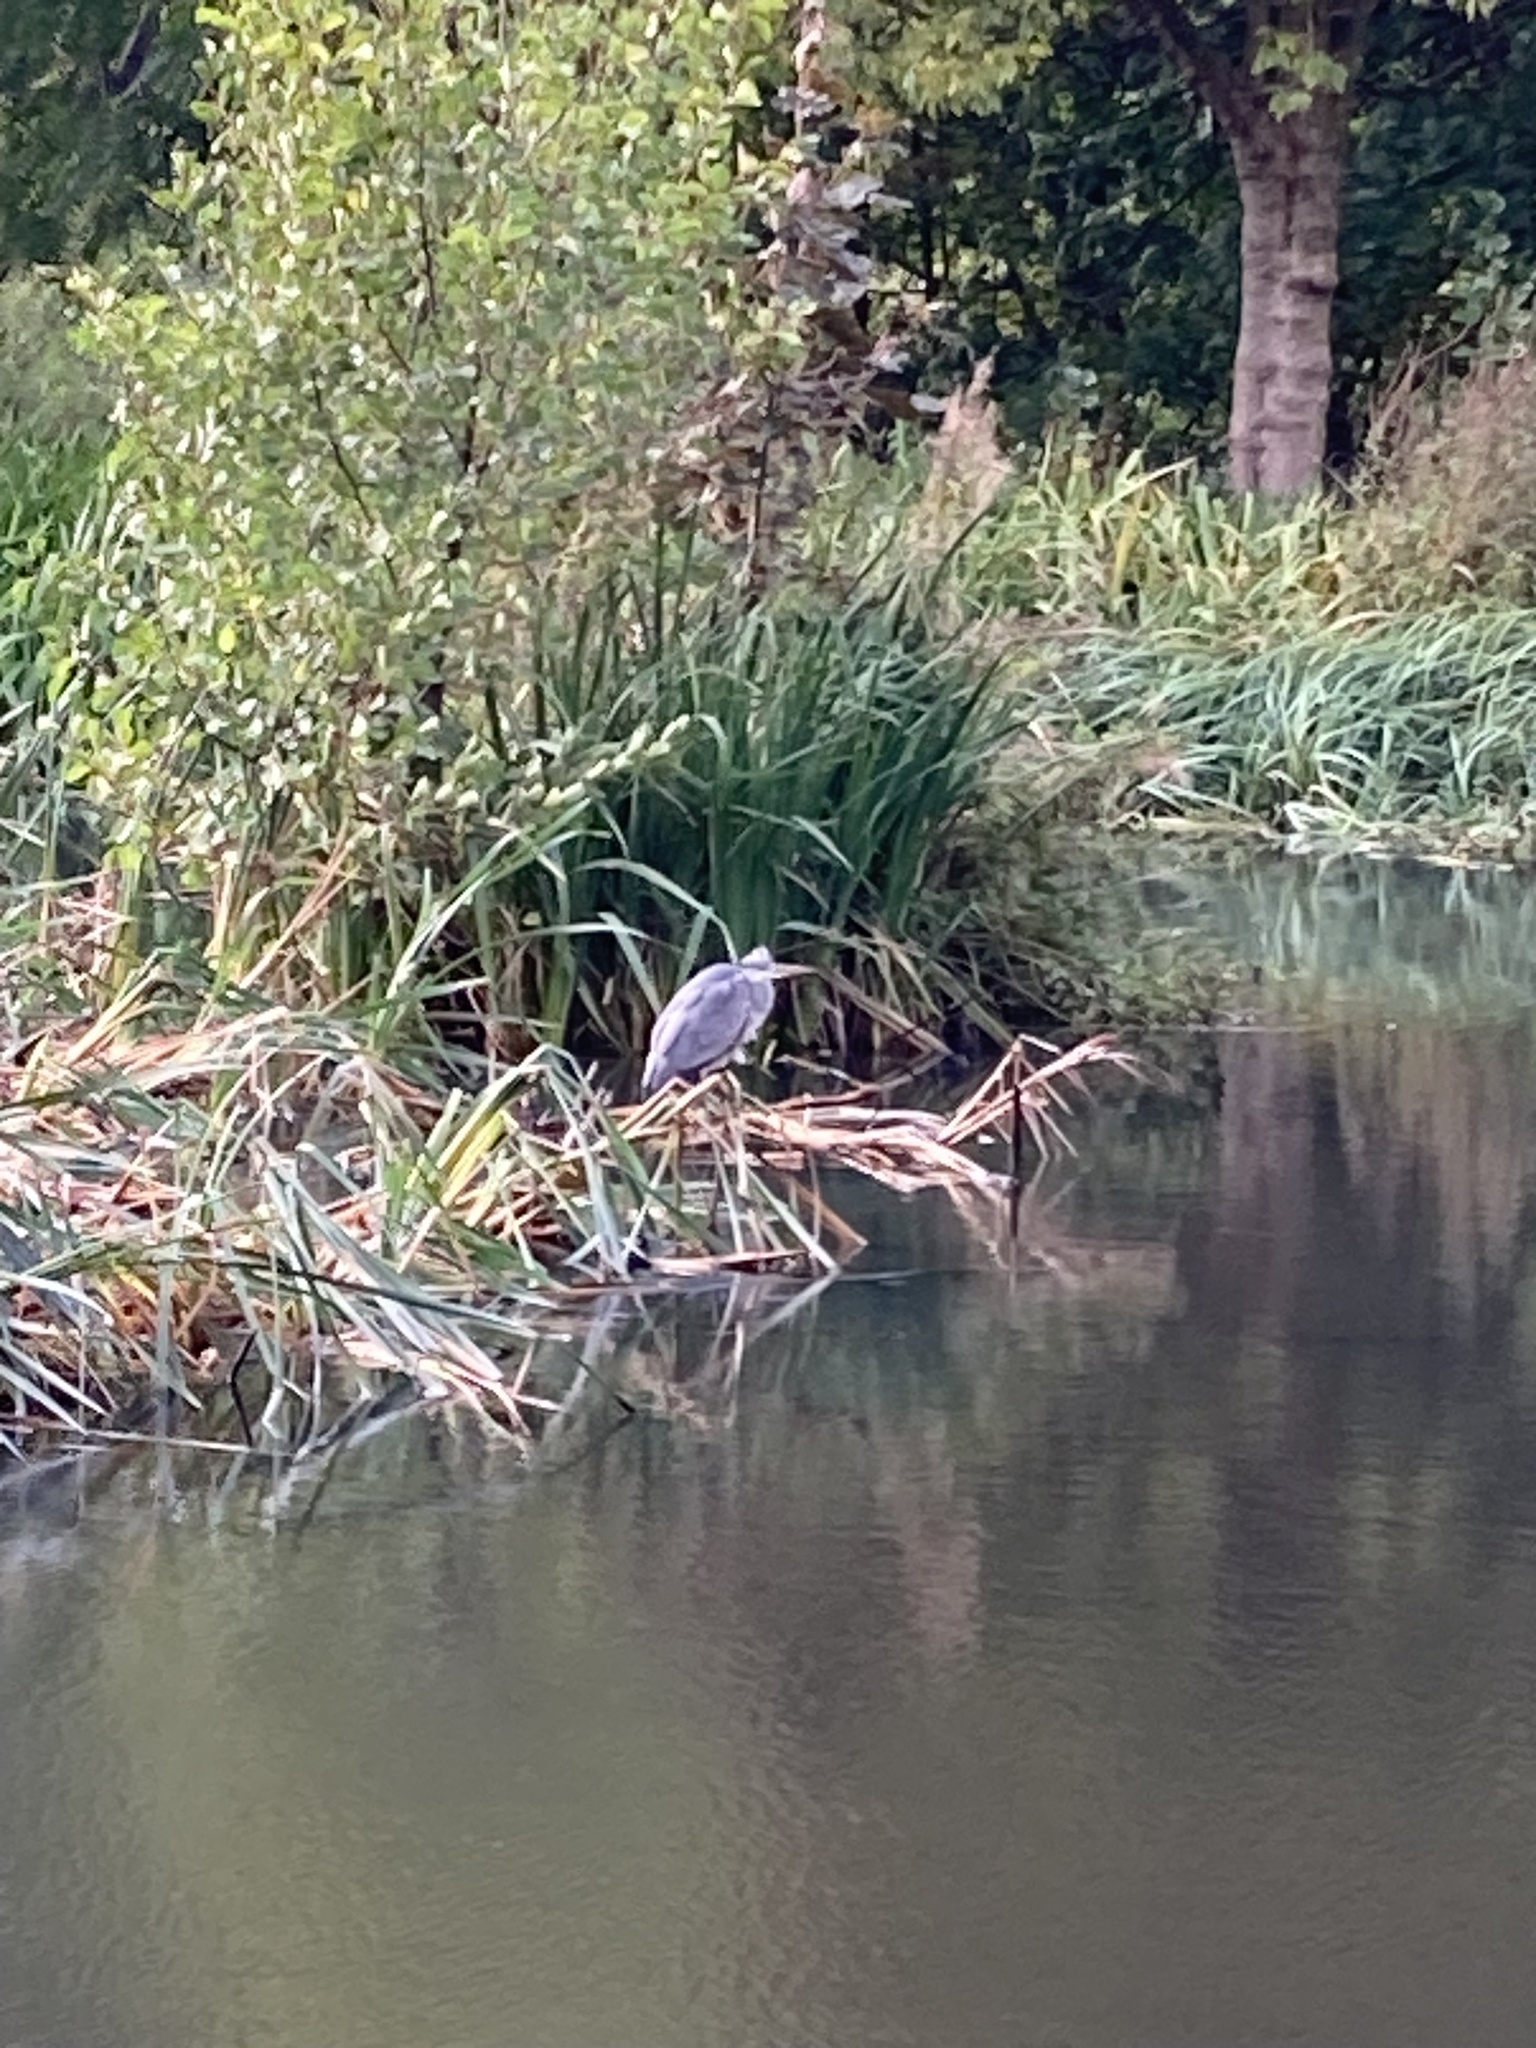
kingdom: Animalia
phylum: Chordata
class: Aves
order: Pelecaniformes
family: Ardeidae
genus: Ardea
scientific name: Ardea cinerea
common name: Grey heron
